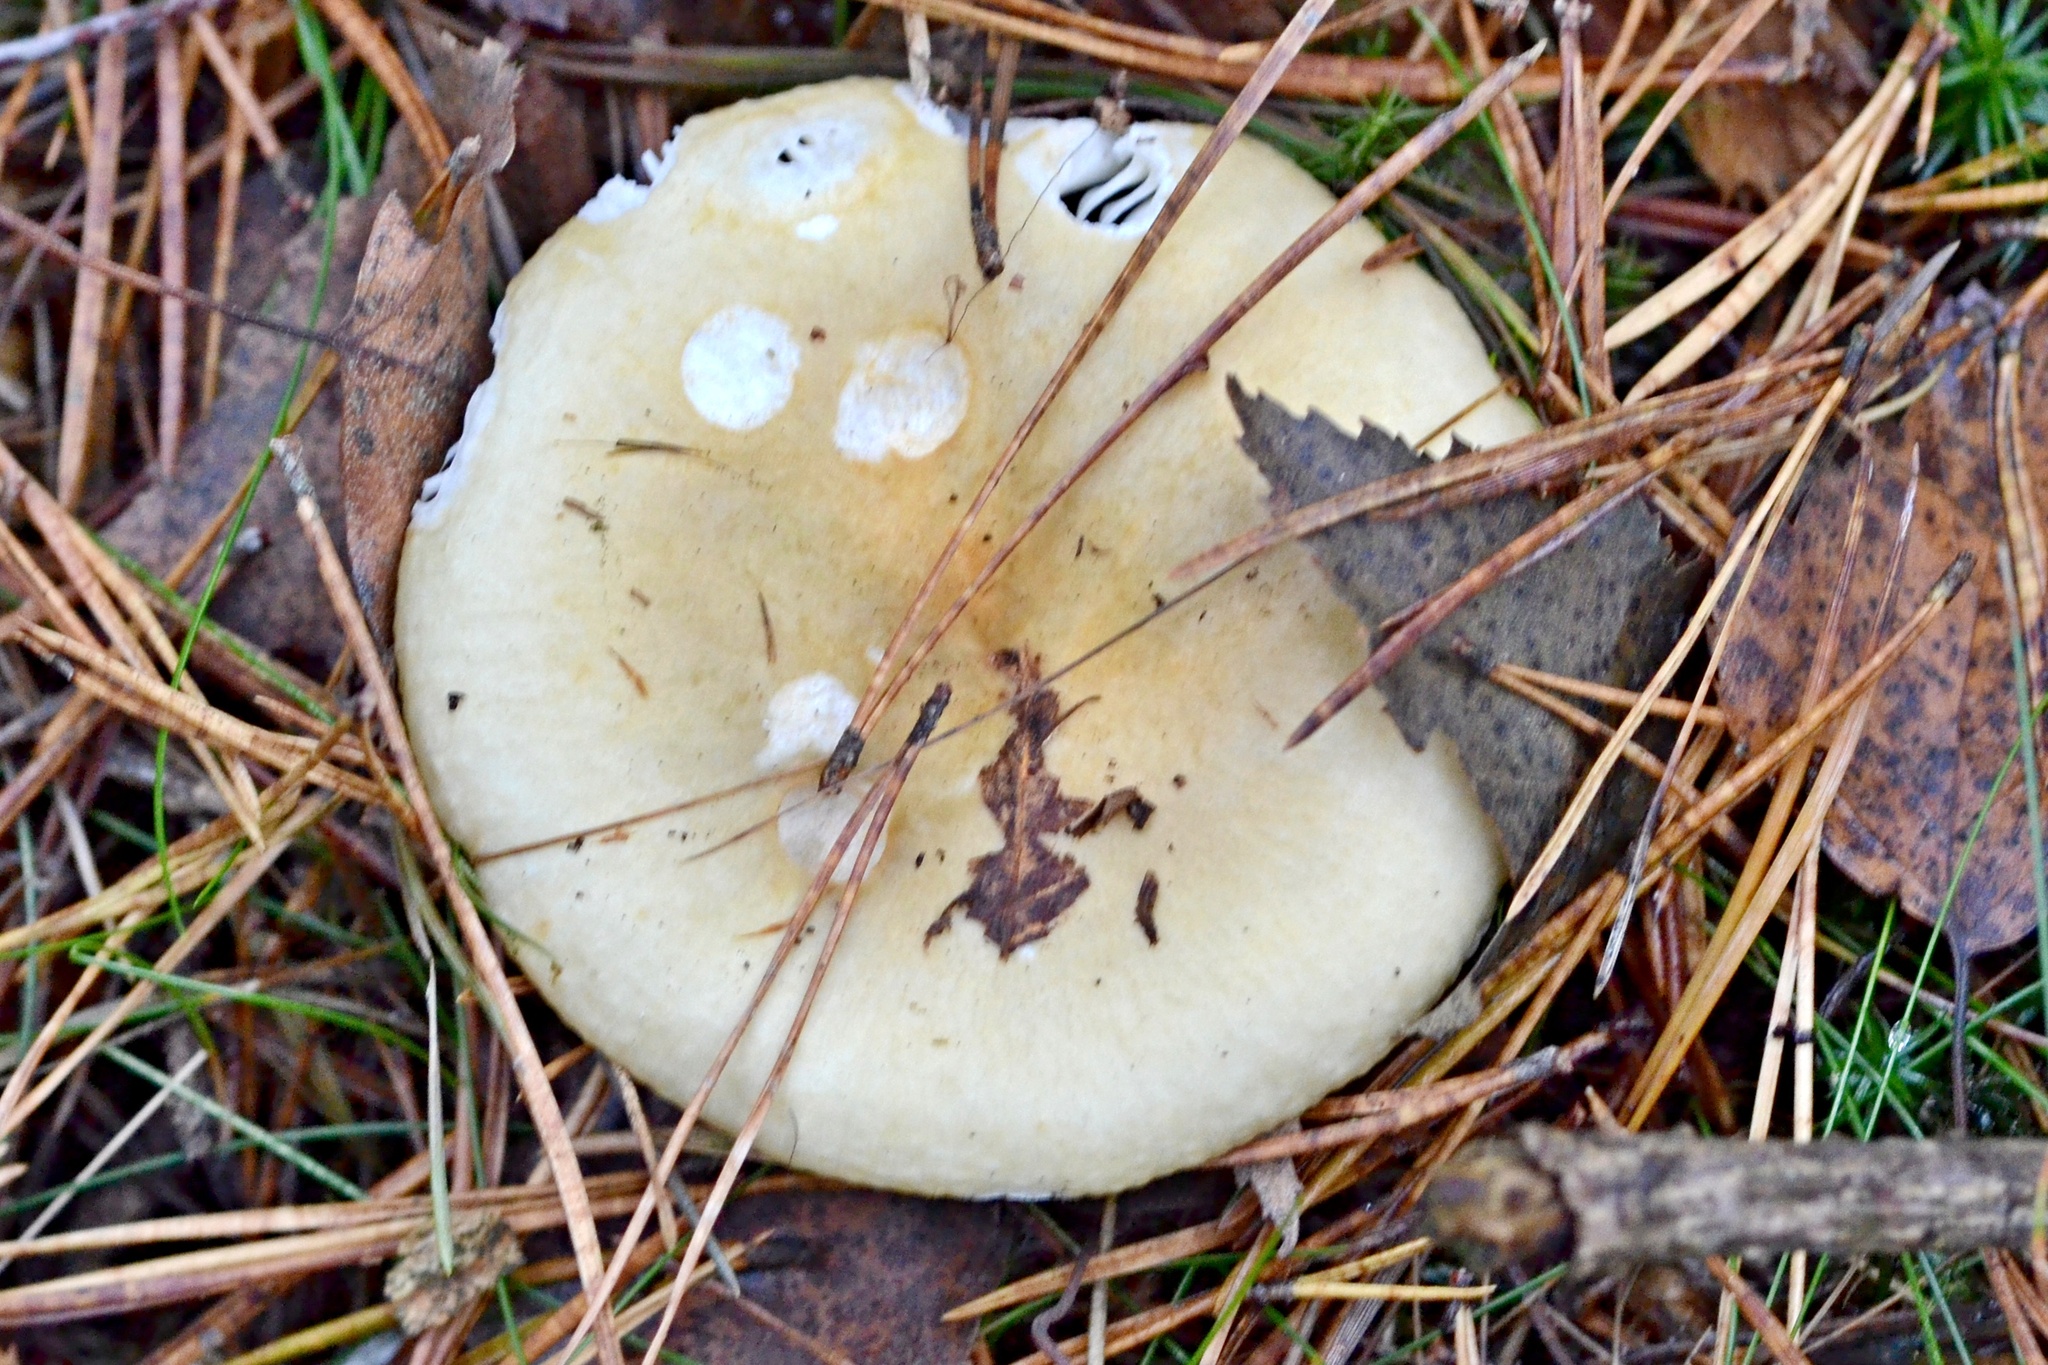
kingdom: Fungi
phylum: Basidiomycota
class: Agaricomycetes
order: Russulales
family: Russulaceae
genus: Russula
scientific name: Russula aeruginea
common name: Green brittlegill
